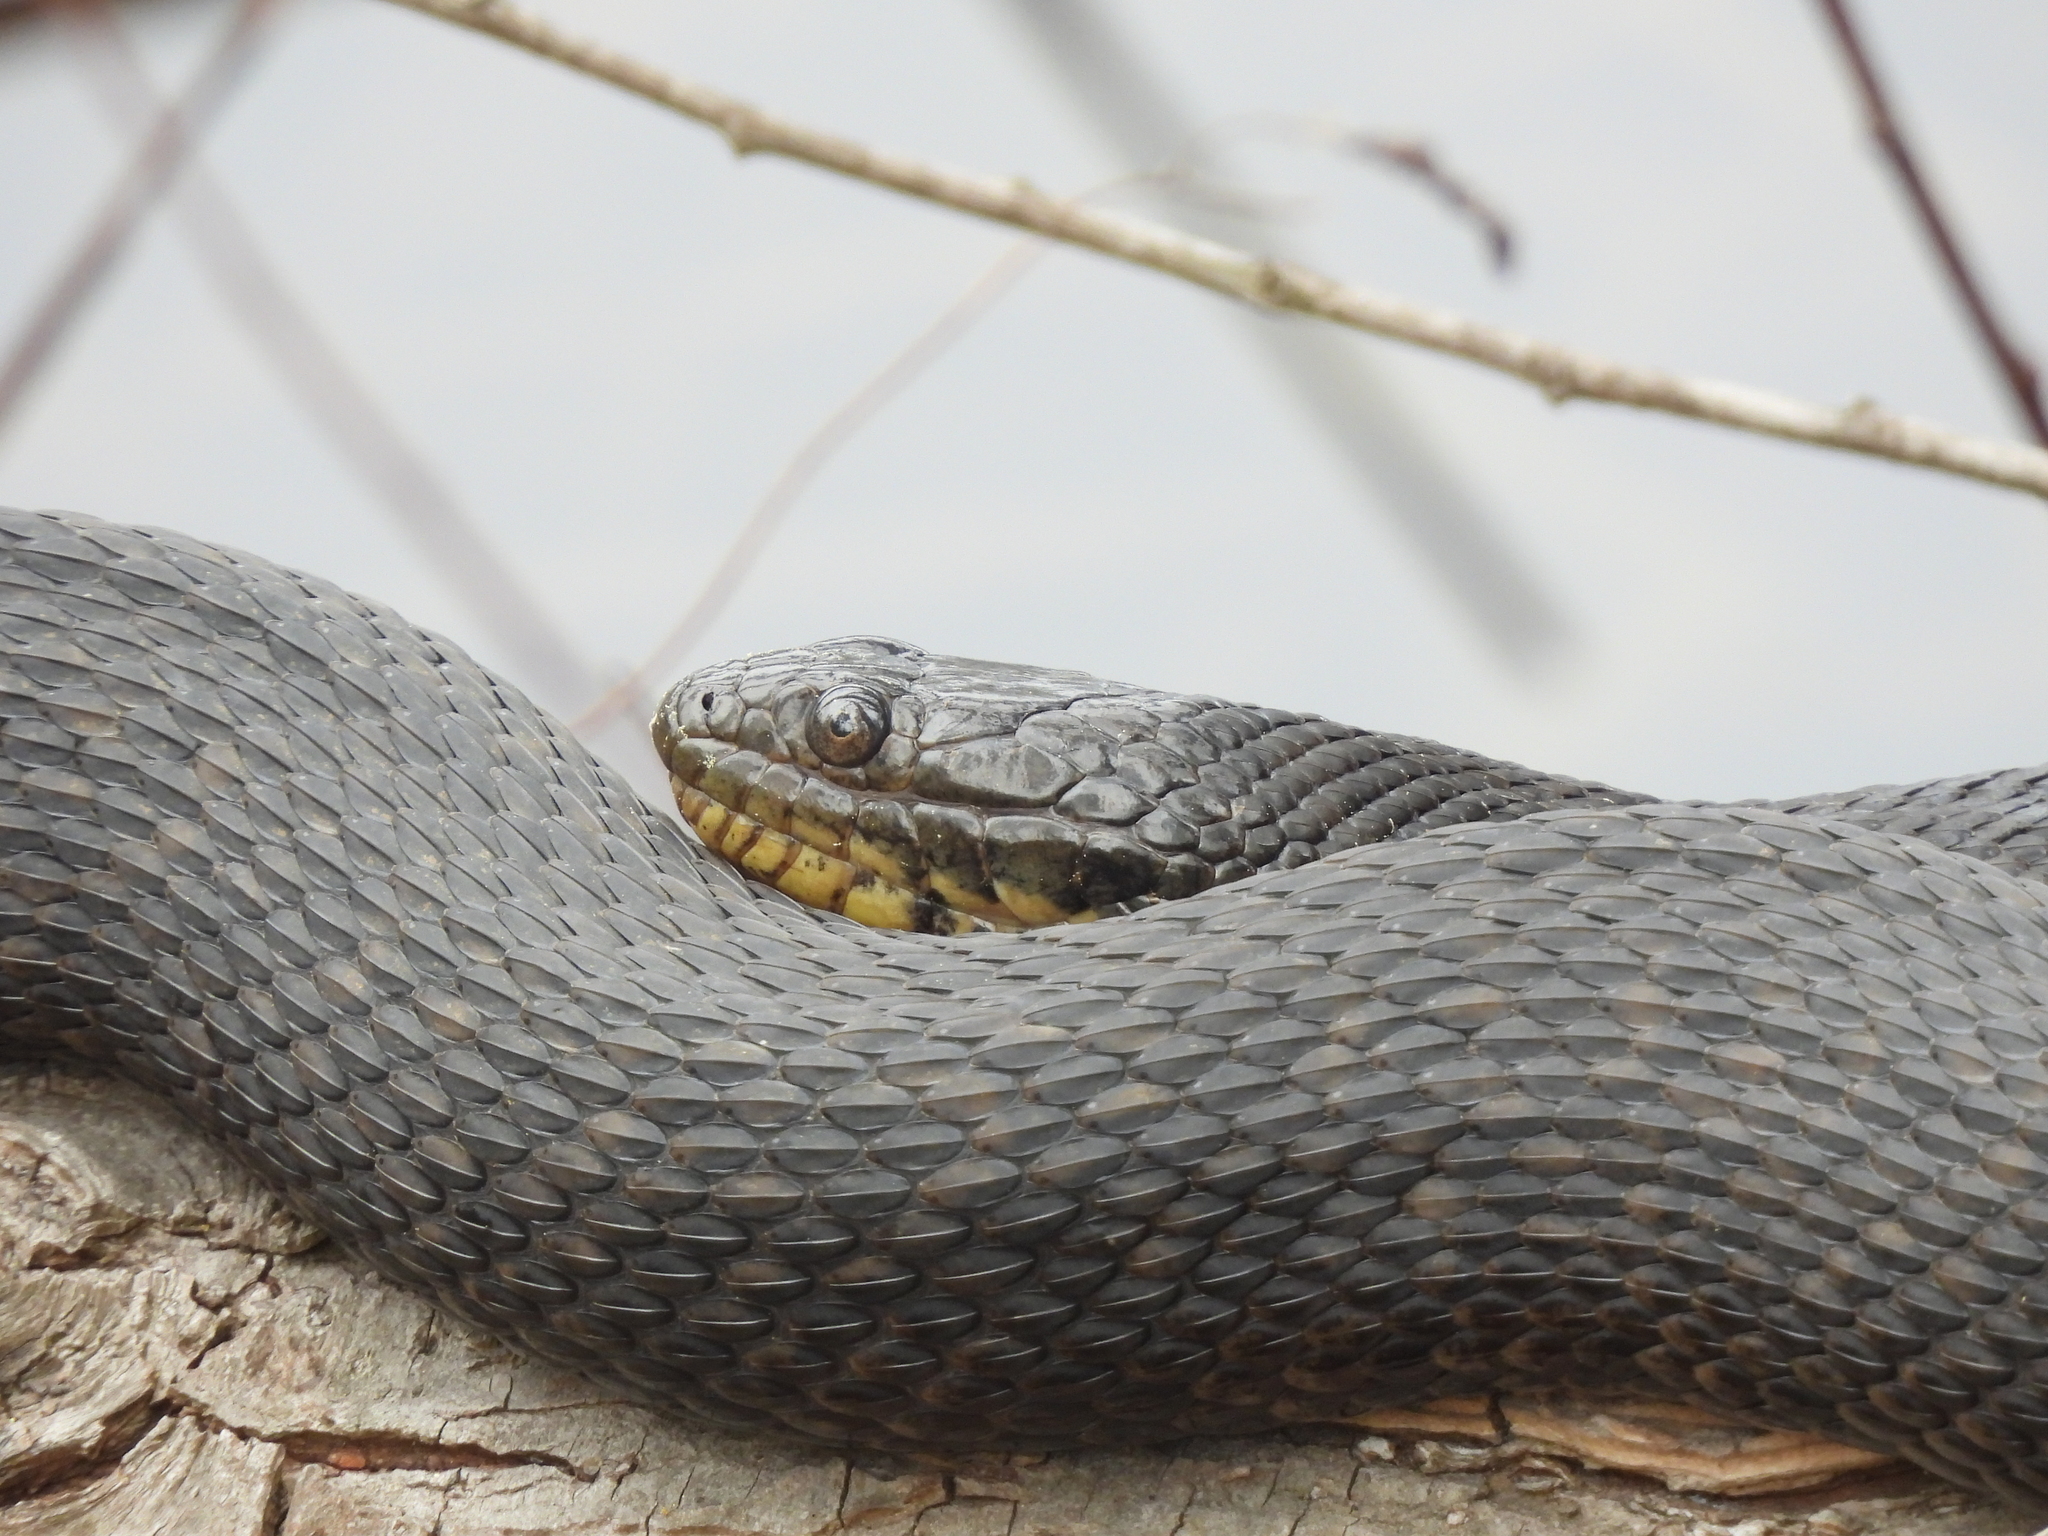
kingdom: Animalia
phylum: Chordata
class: Squamata
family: Colubridae
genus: Nerodia
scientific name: Nerodia cyclopion
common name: Mississippi green water snake
